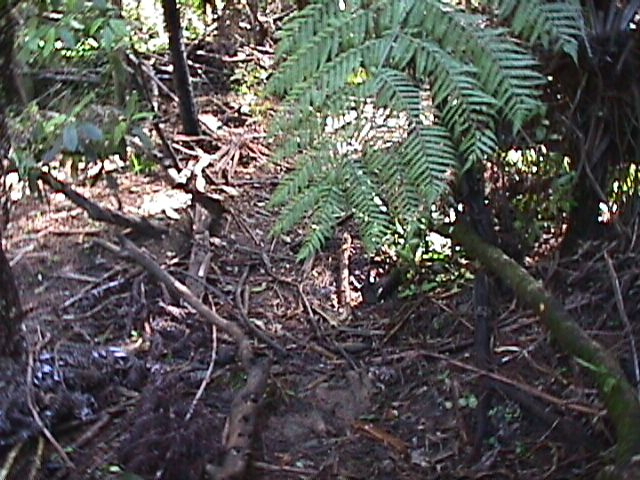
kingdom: Plantae
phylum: Tracheophyta
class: Polypodiopsida
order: Cyatheales
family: Cyatheaceae
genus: Alsophila
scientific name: Alsophila dealbata
